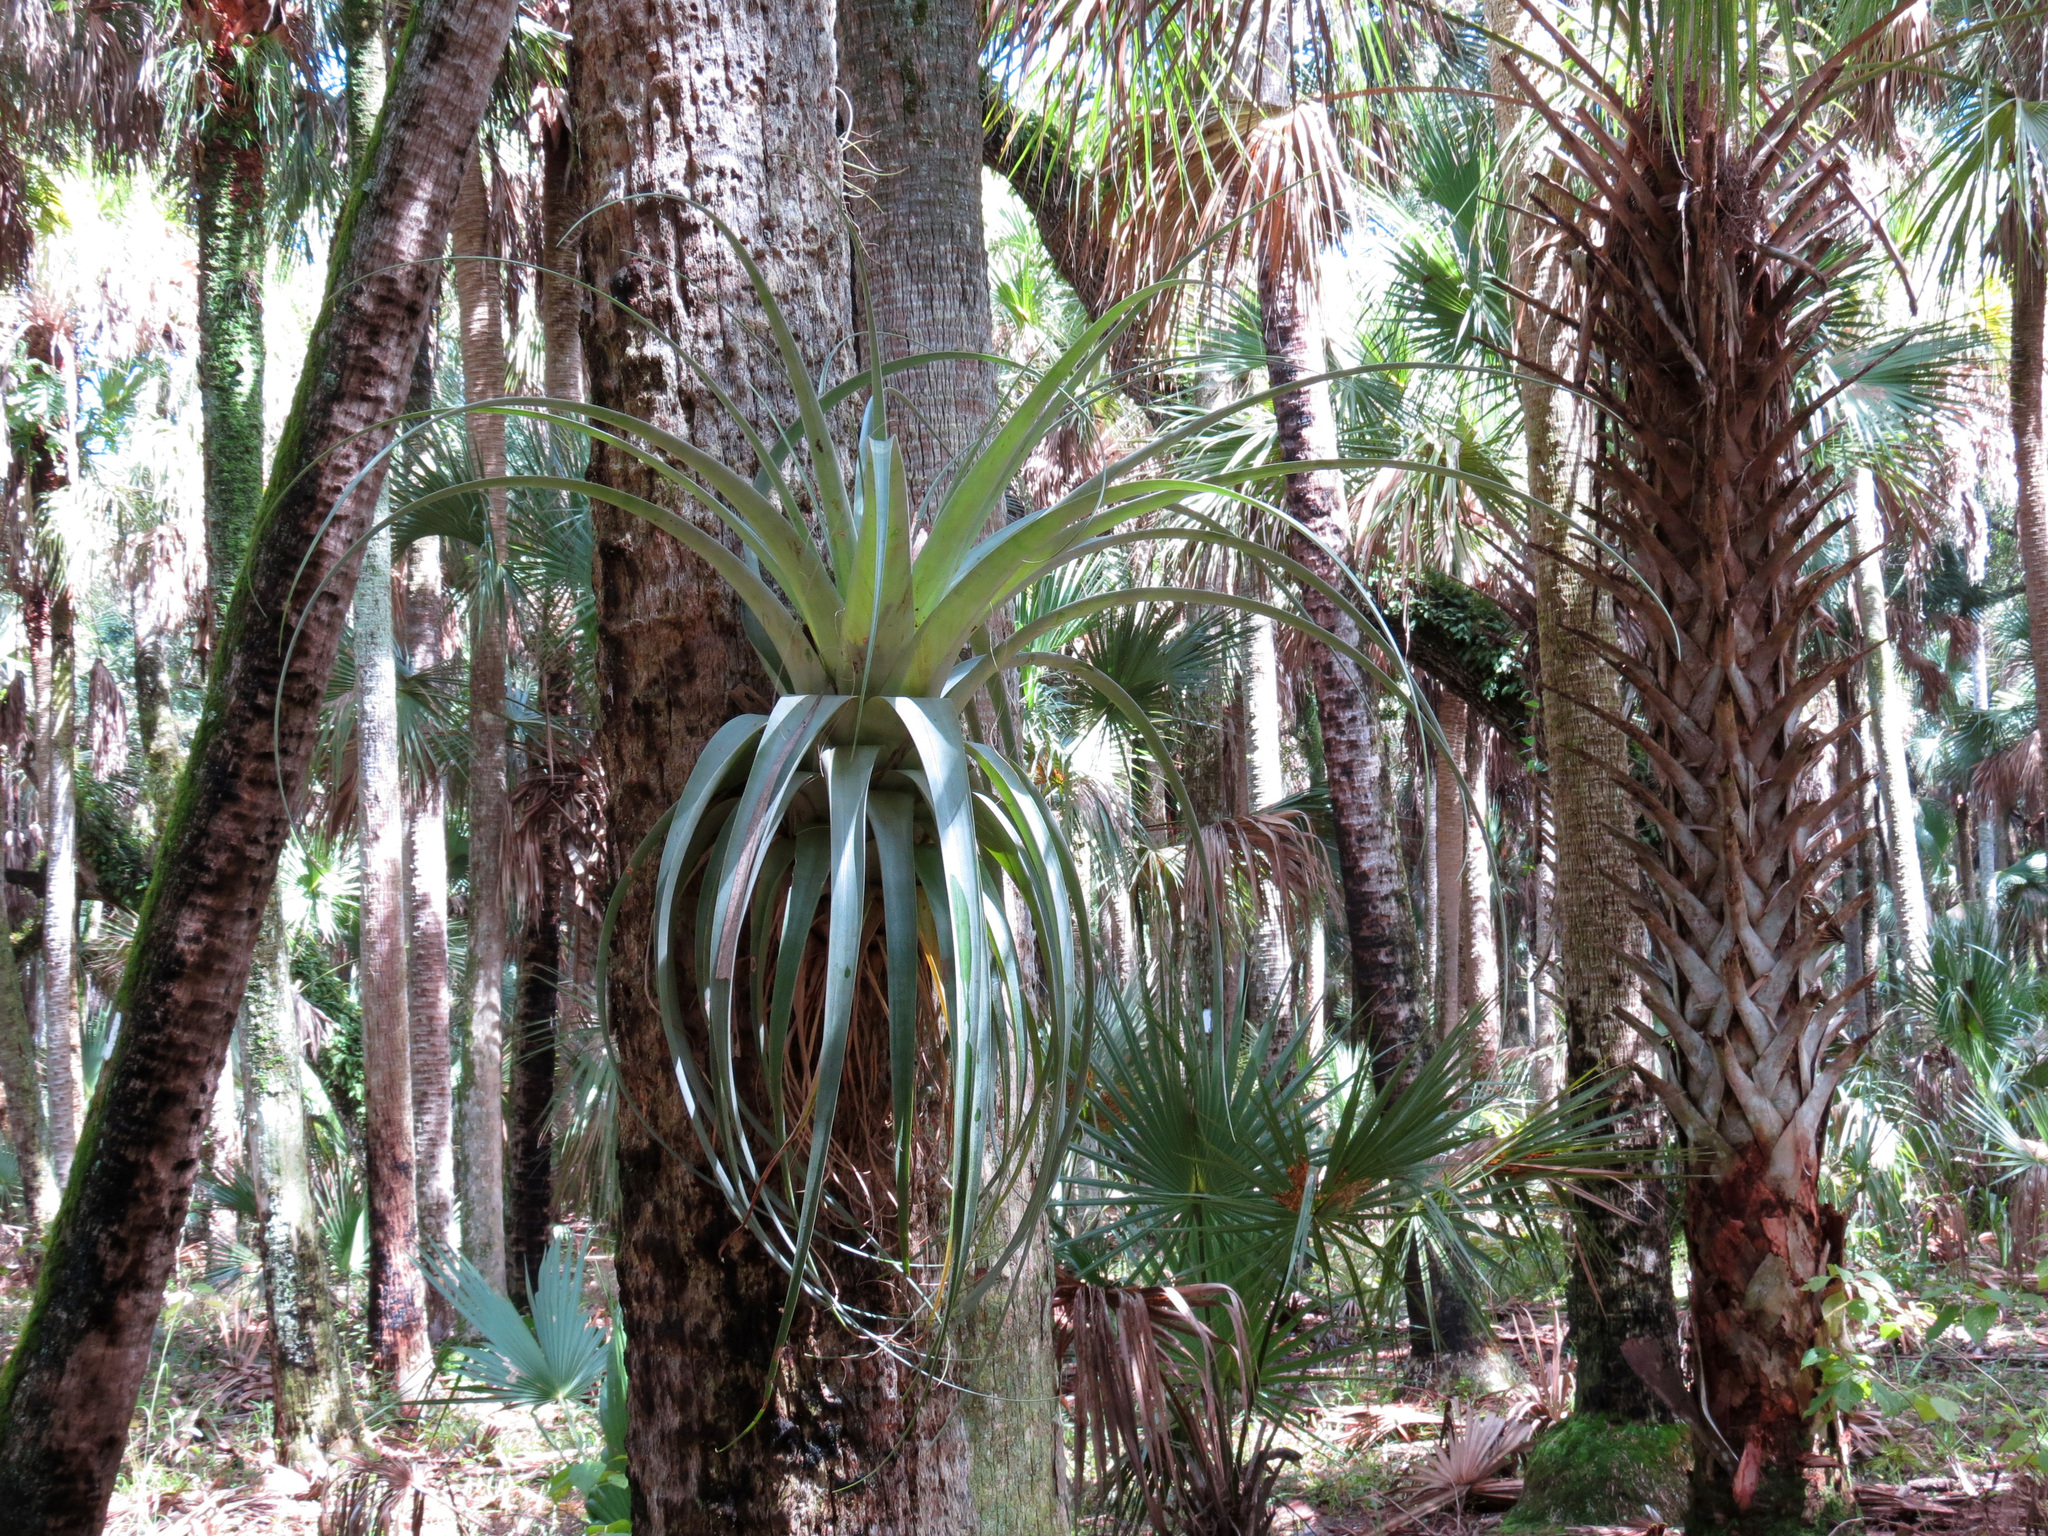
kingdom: Plantae
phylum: Tracheophyta
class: Liliopsida
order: Poales
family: Bromeliaceae
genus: Tillandsia
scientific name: Tillandsia utriculata
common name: Wild pine
